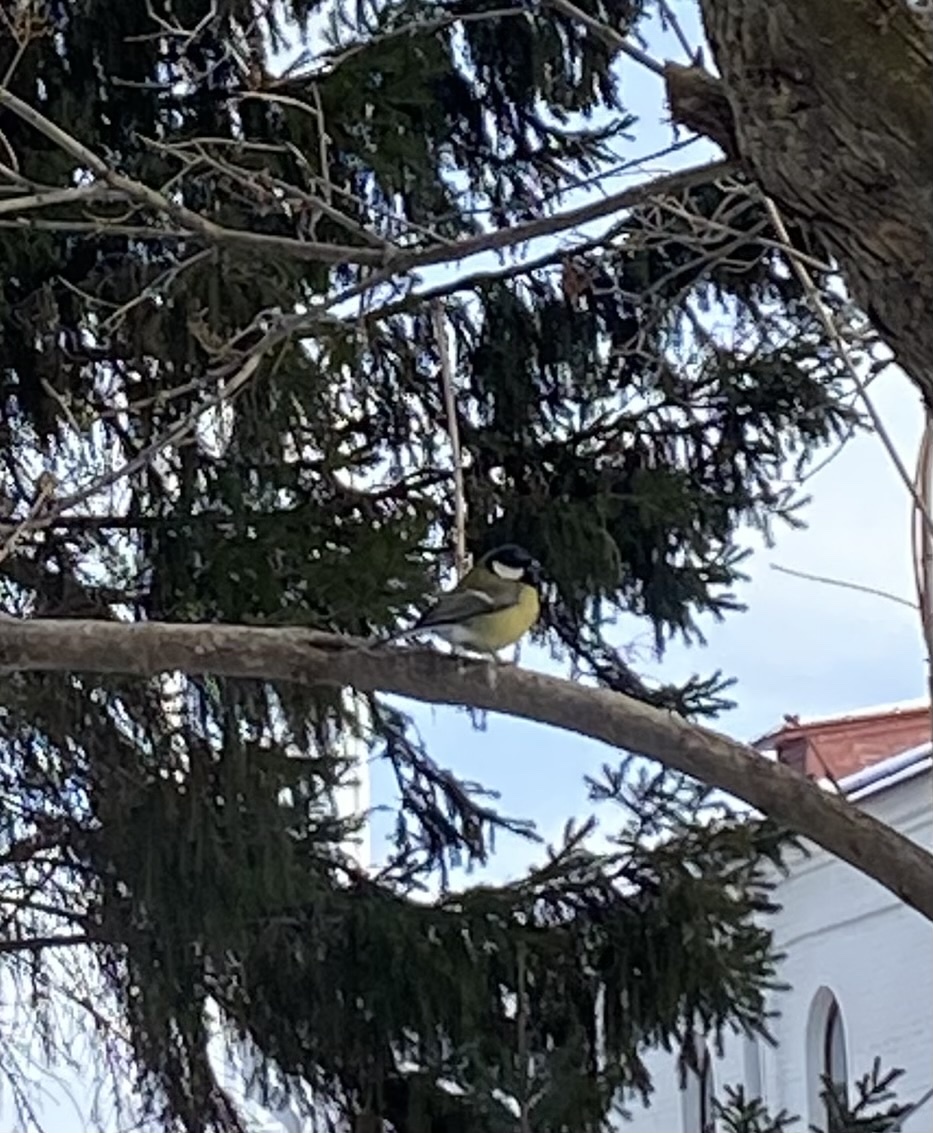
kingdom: Animalia
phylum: Chordata
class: Aves
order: Passeriformes
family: Paridae
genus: Parus
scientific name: Parus major
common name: Great tit
